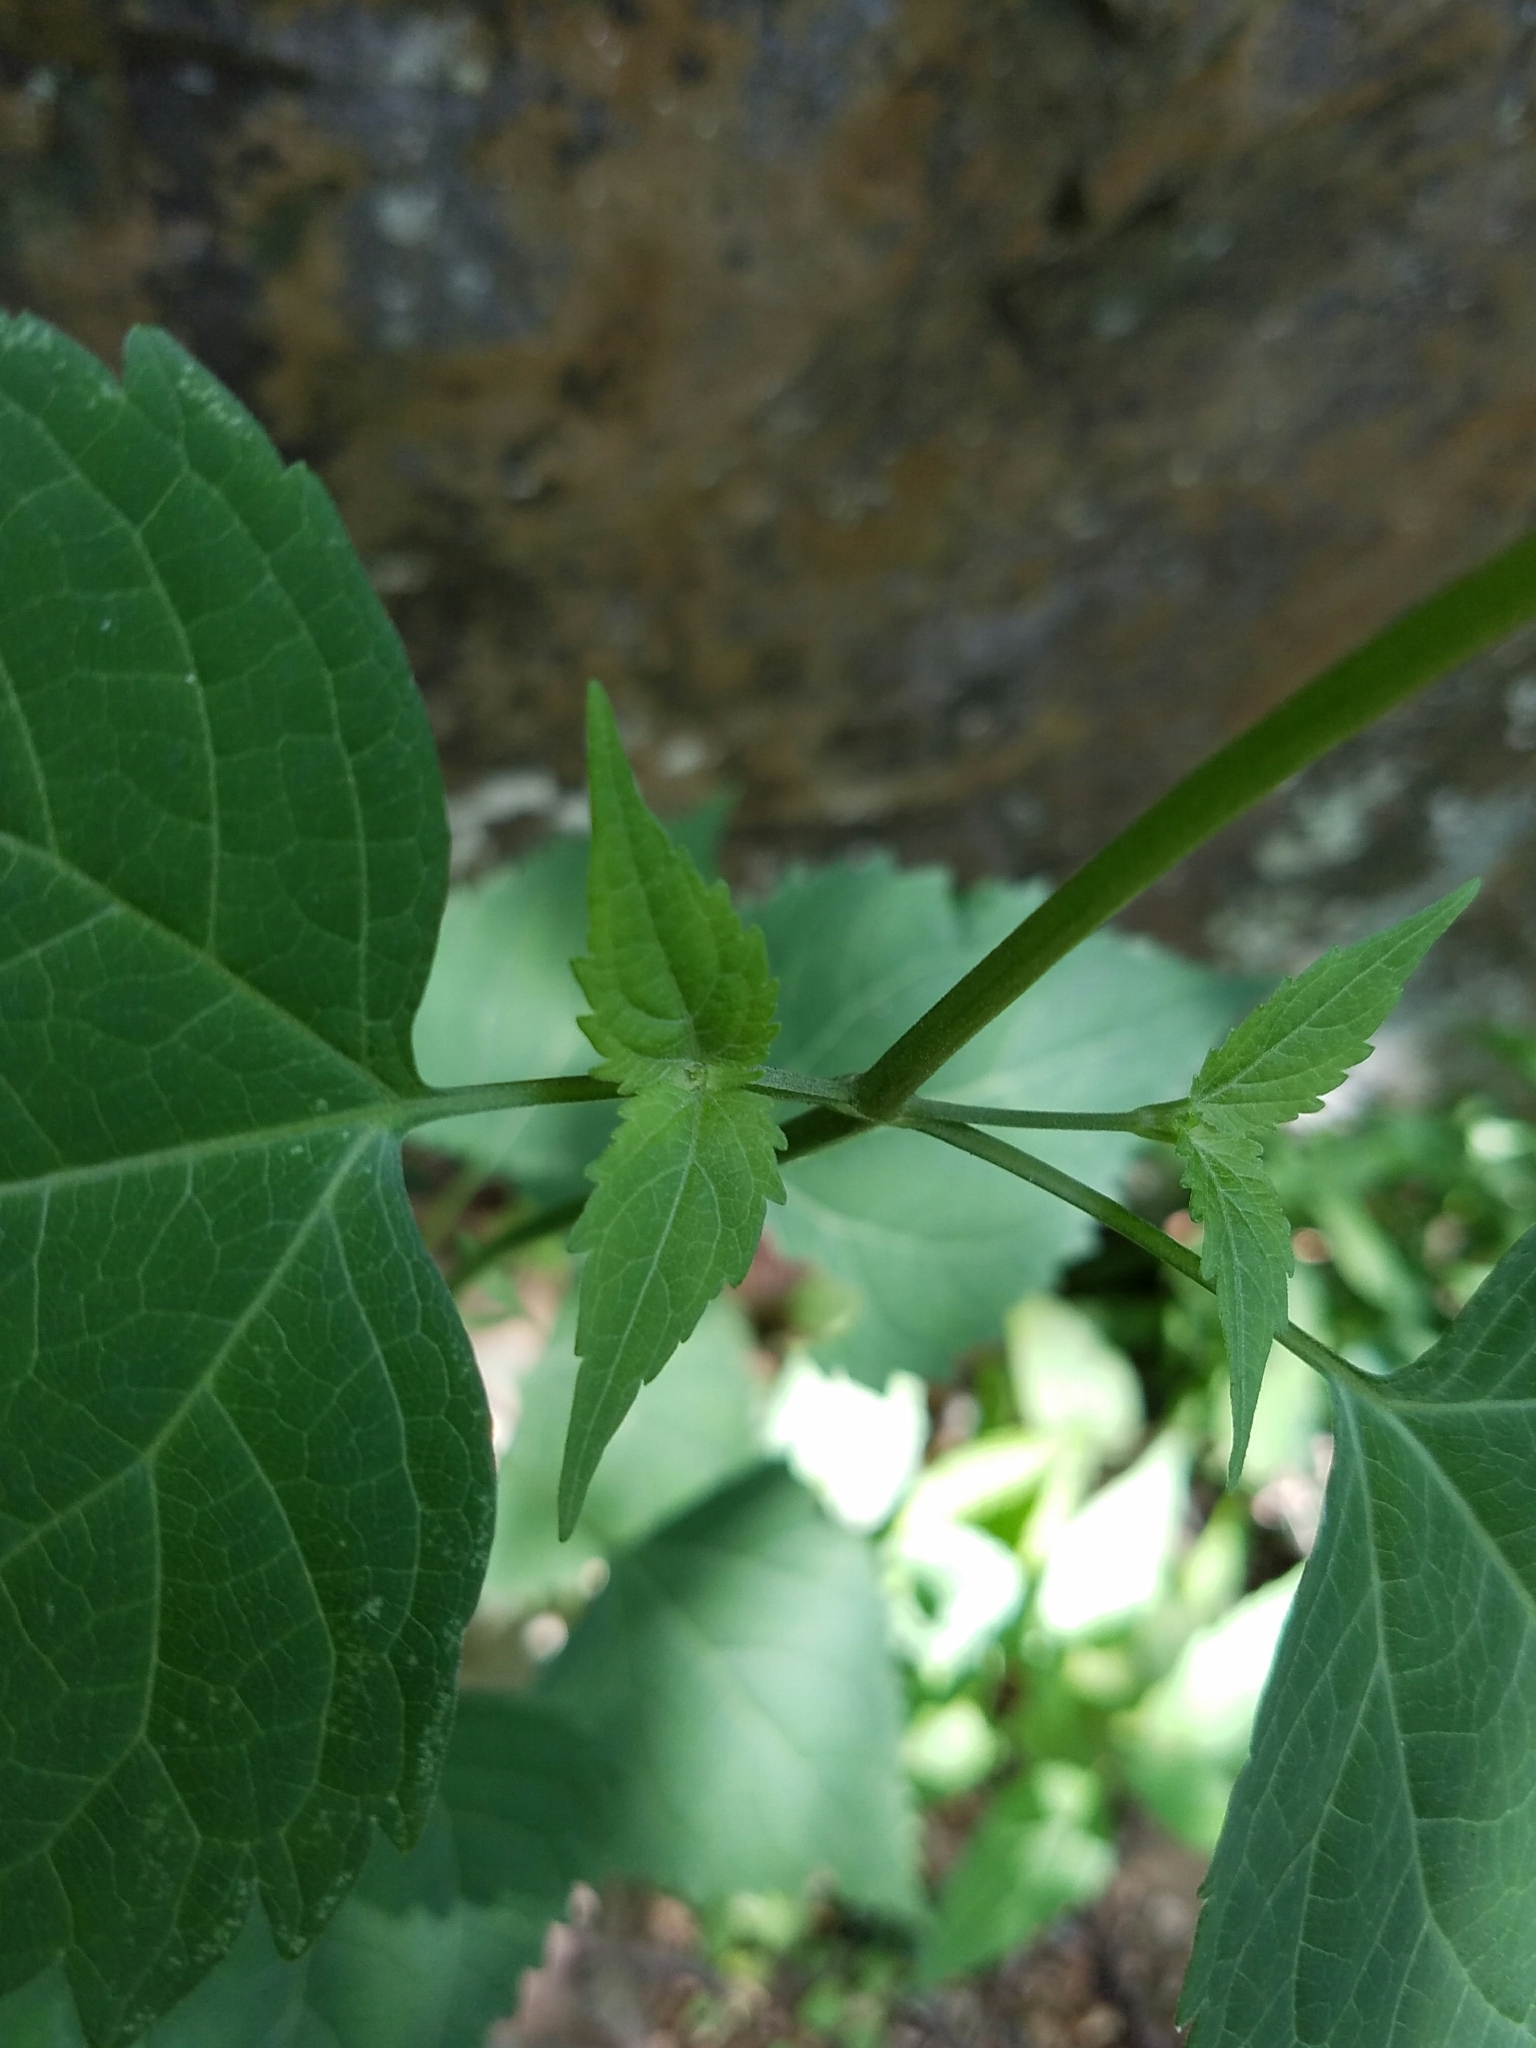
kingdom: Plantae
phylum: Tracheophyta
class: Magnoliopsida
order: Asterales
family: Asteraceae
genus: Ageratina
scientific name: Ageratina altissima
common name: White snakeroot
